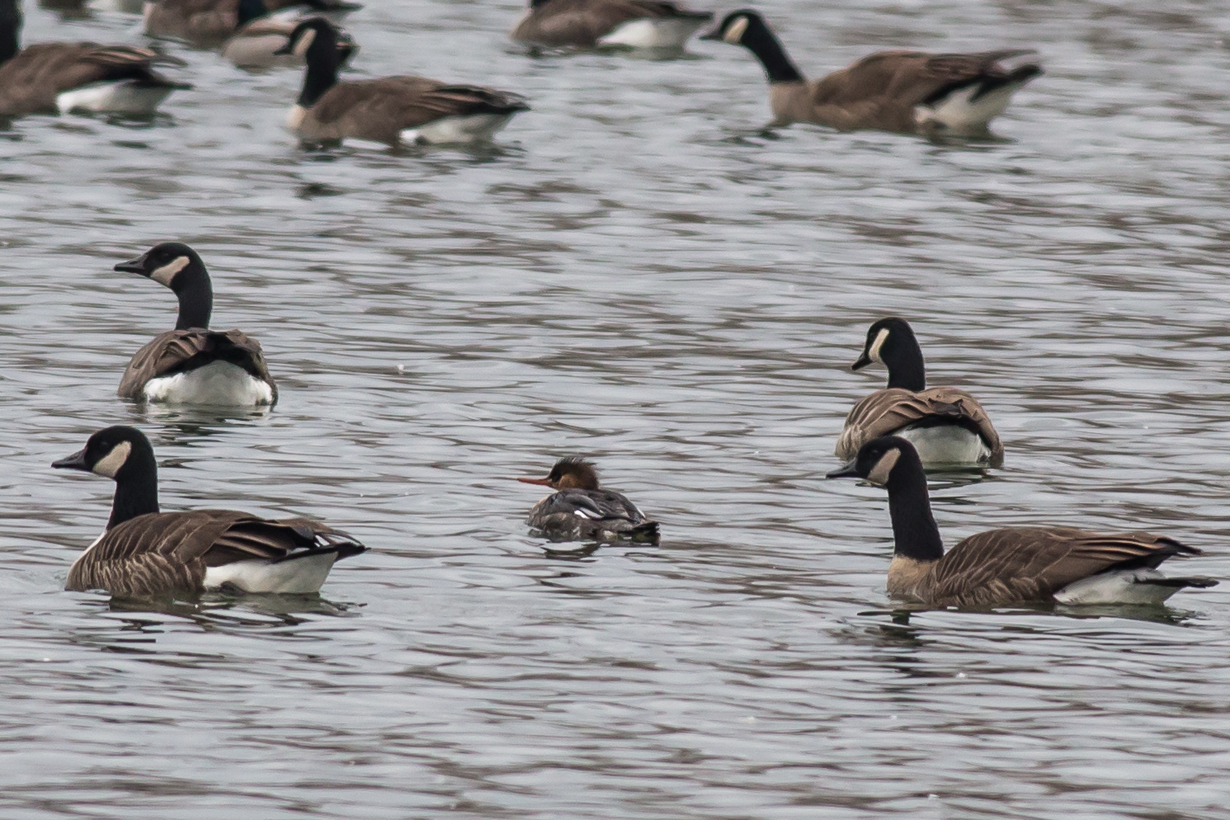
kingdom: Animalia
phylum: Chordata
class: Aves
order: Anseriformes
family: Anatidae
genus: Mergus
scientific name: Mergus serrator
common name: Red-breasted merganser
